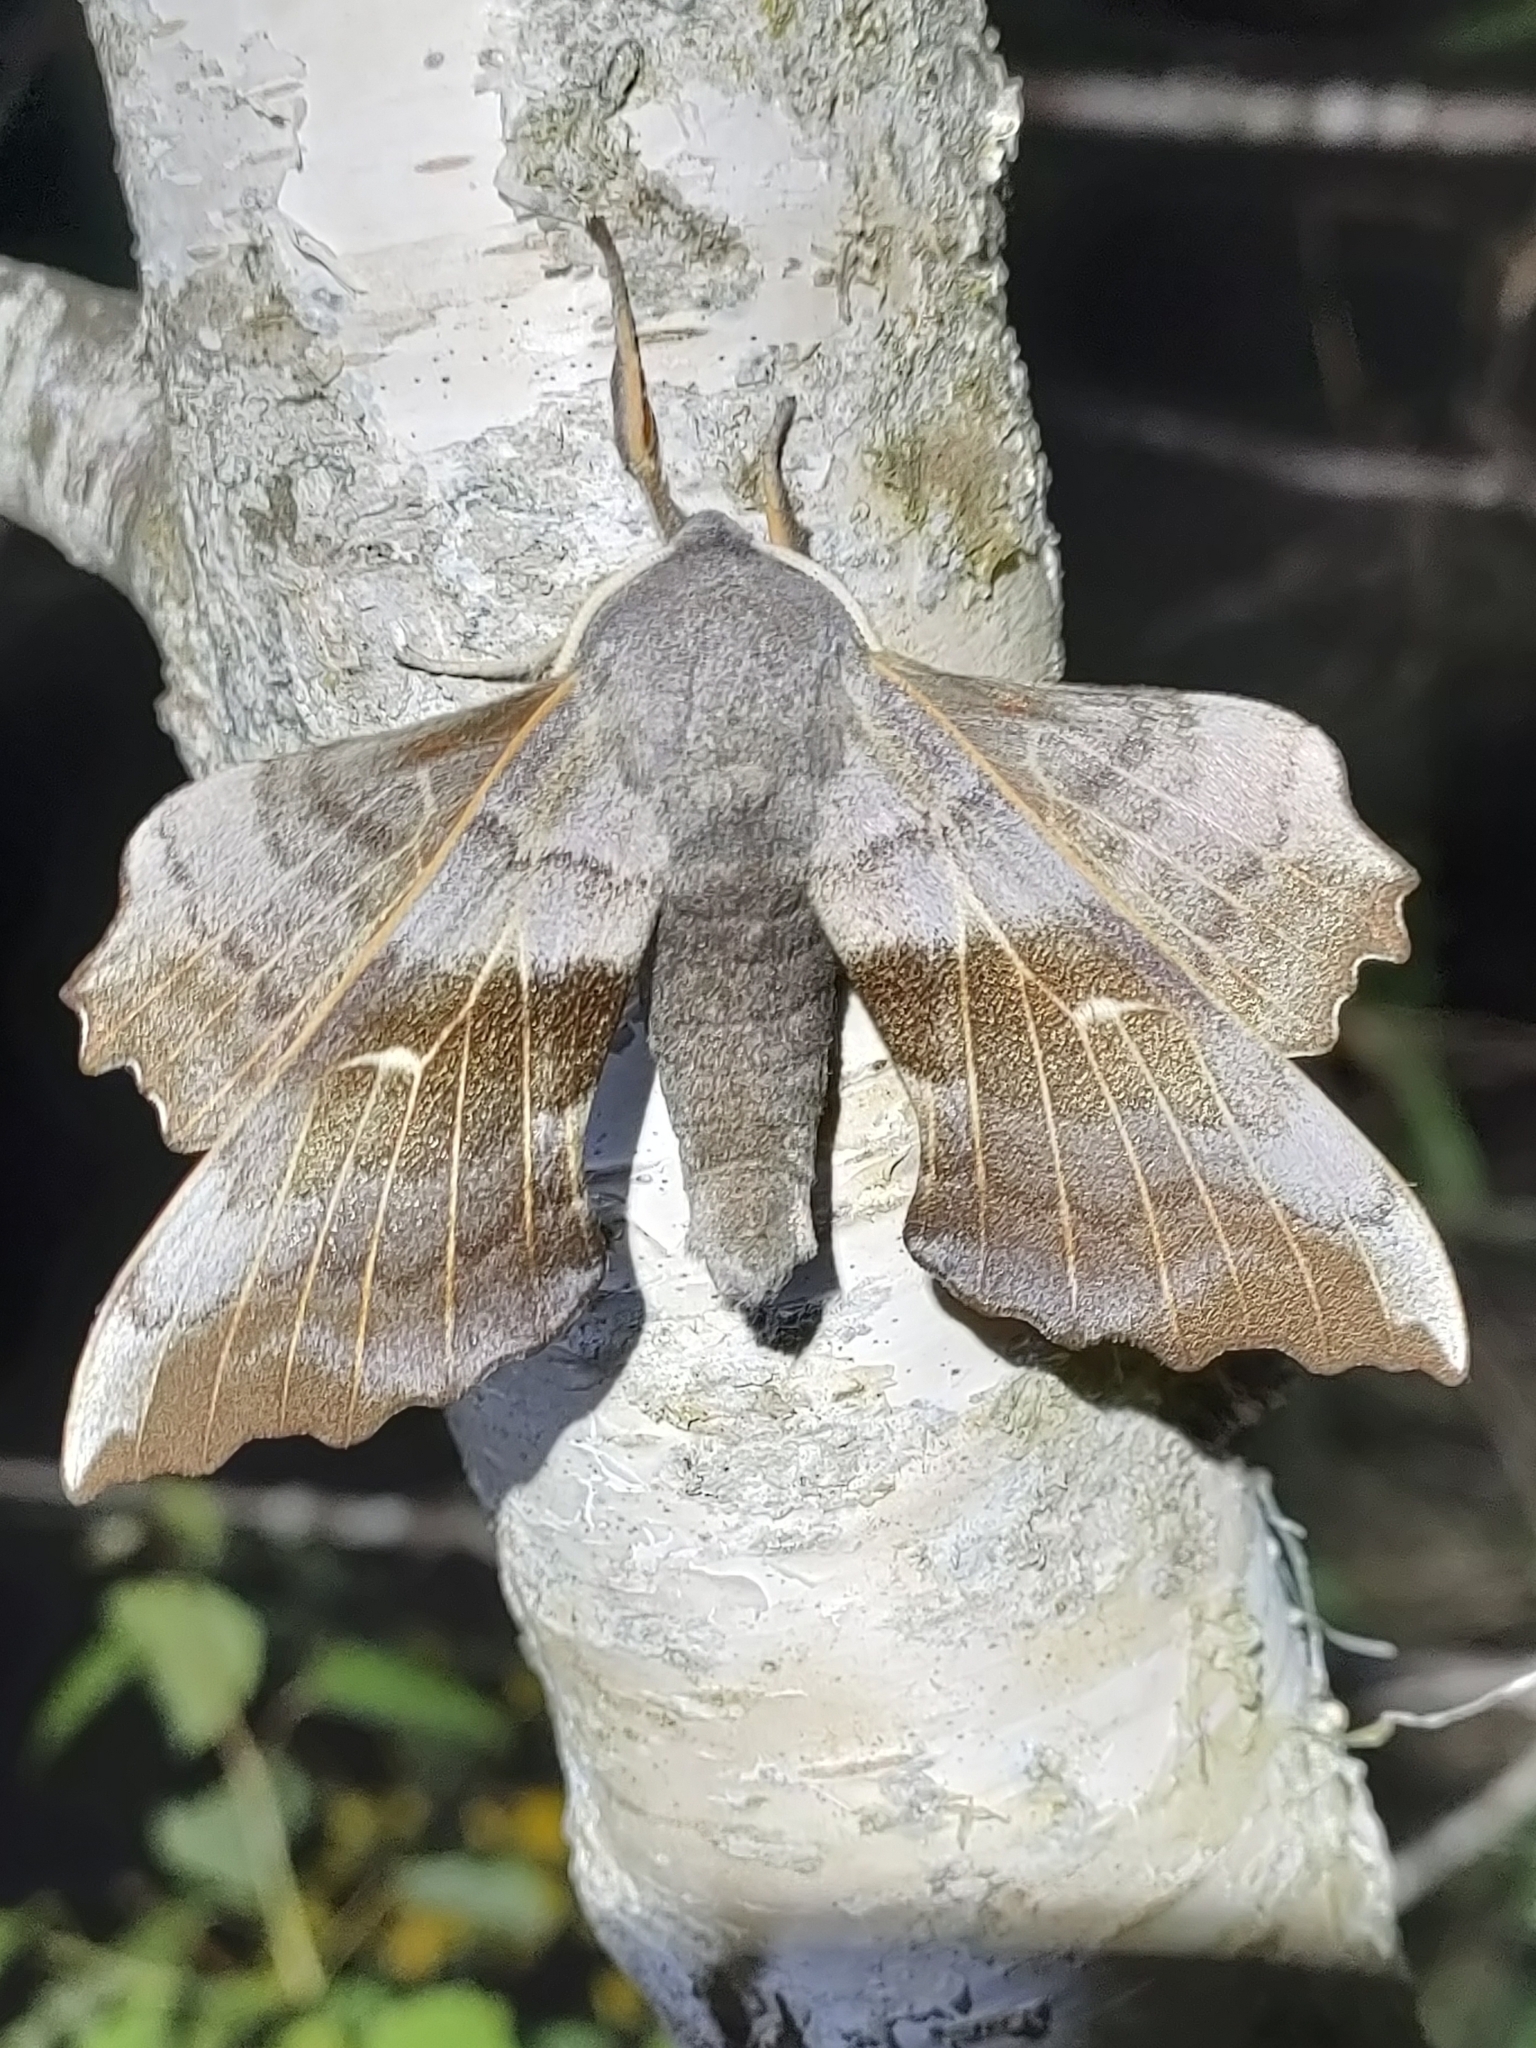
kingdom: Animalia
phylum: Arthropoda
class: Insecta
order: Lepidoptera
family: Sphingidae
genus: Laothoe
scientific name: Laothoe populi
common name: Poplar hawk-moth
